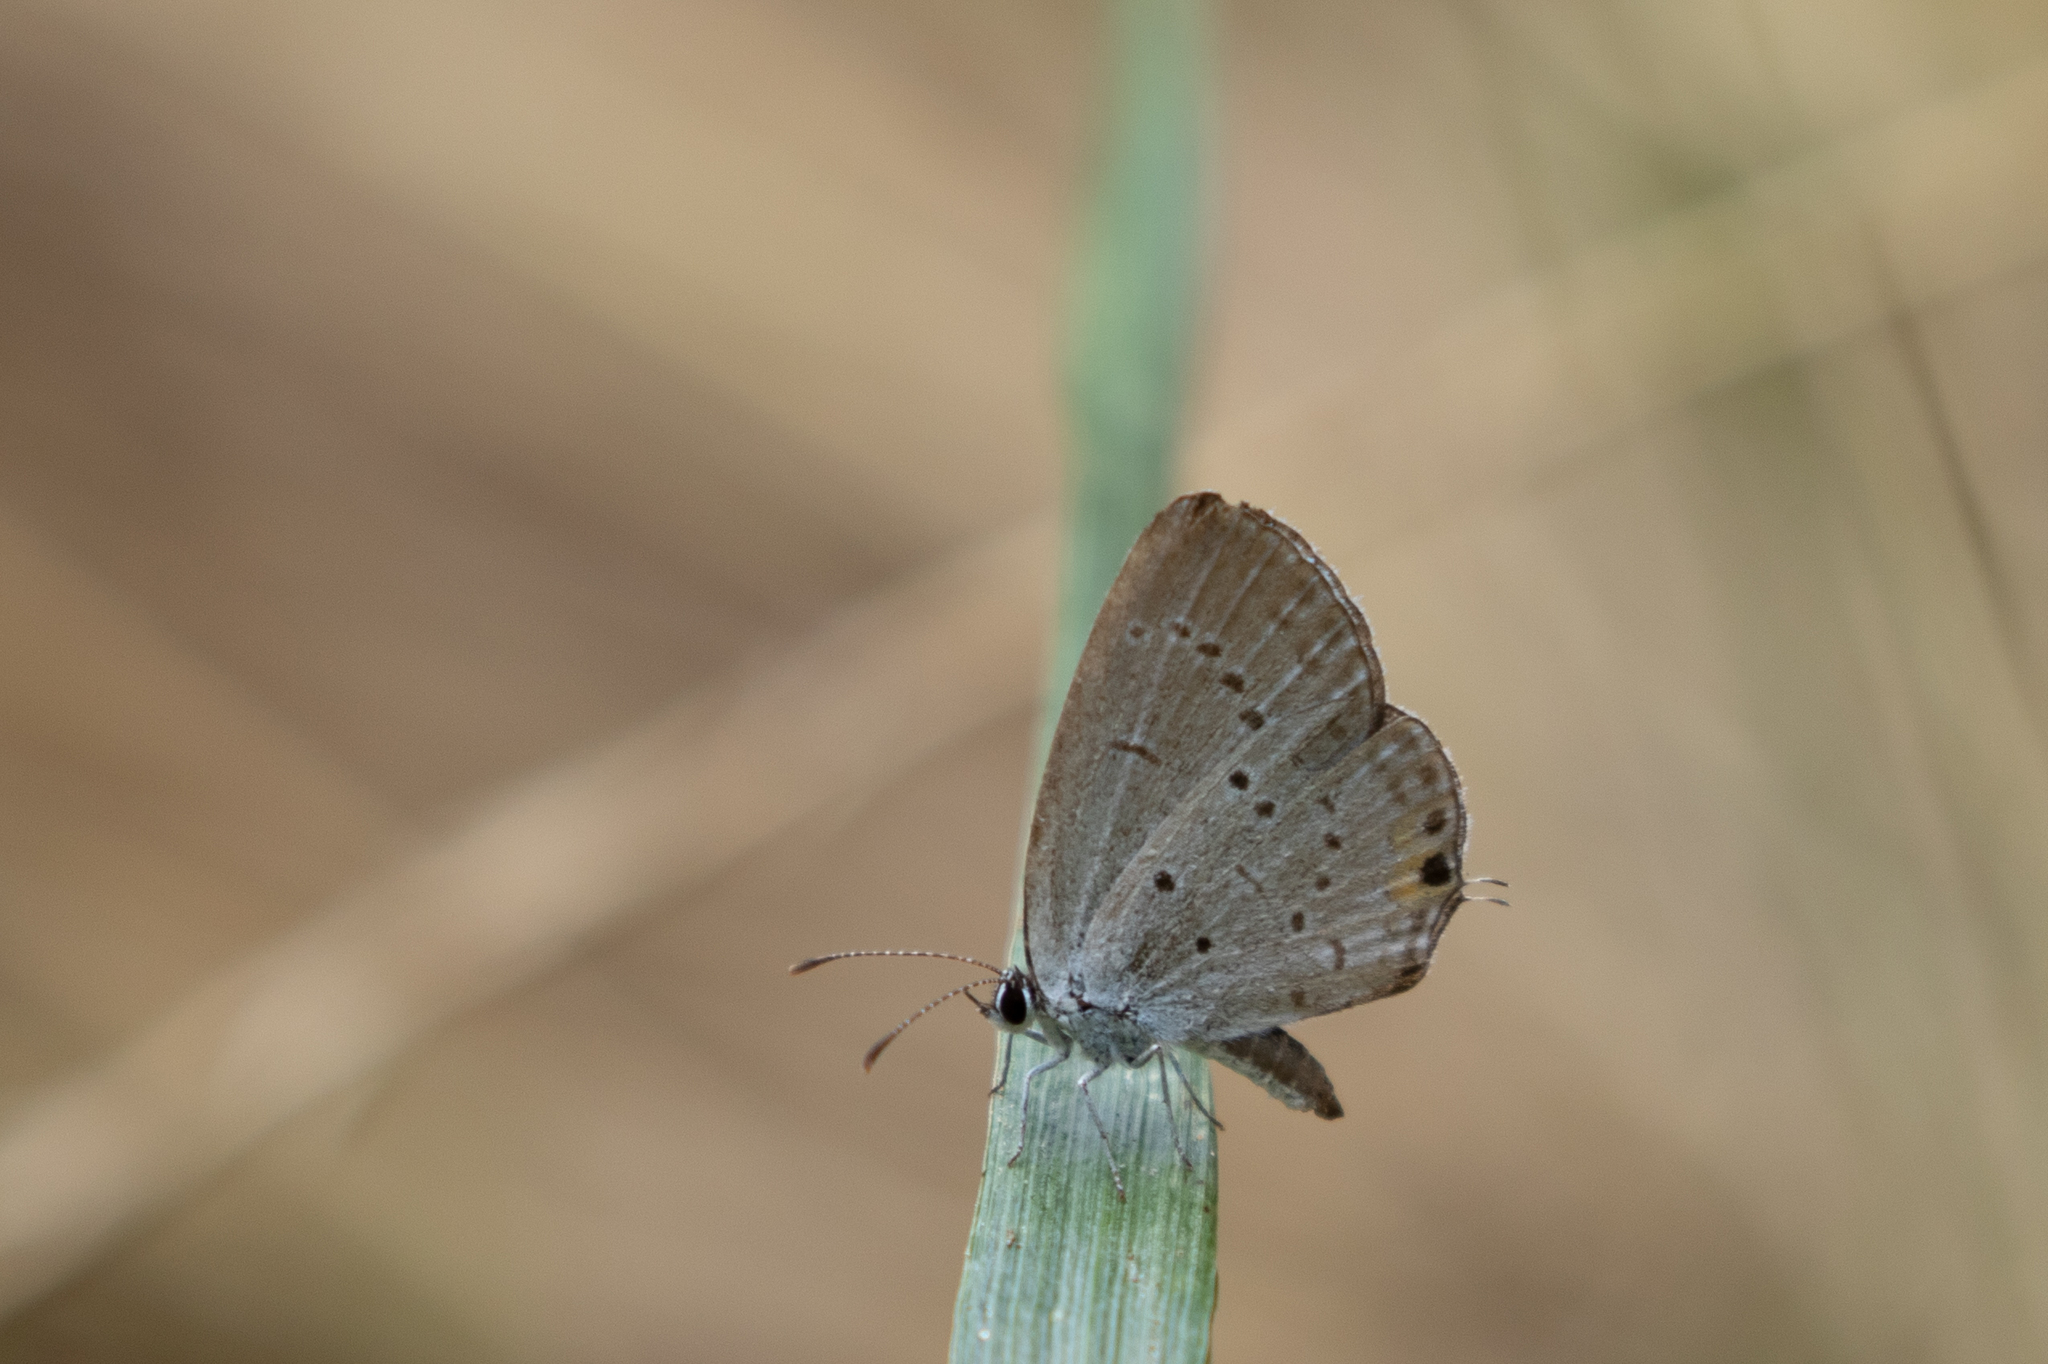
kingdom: Animalia
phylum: Arthropoda
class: Insecta
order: Lepidoptera
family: Lycaenidae
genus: Elkalyce
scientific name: Elkalyce comyntas
